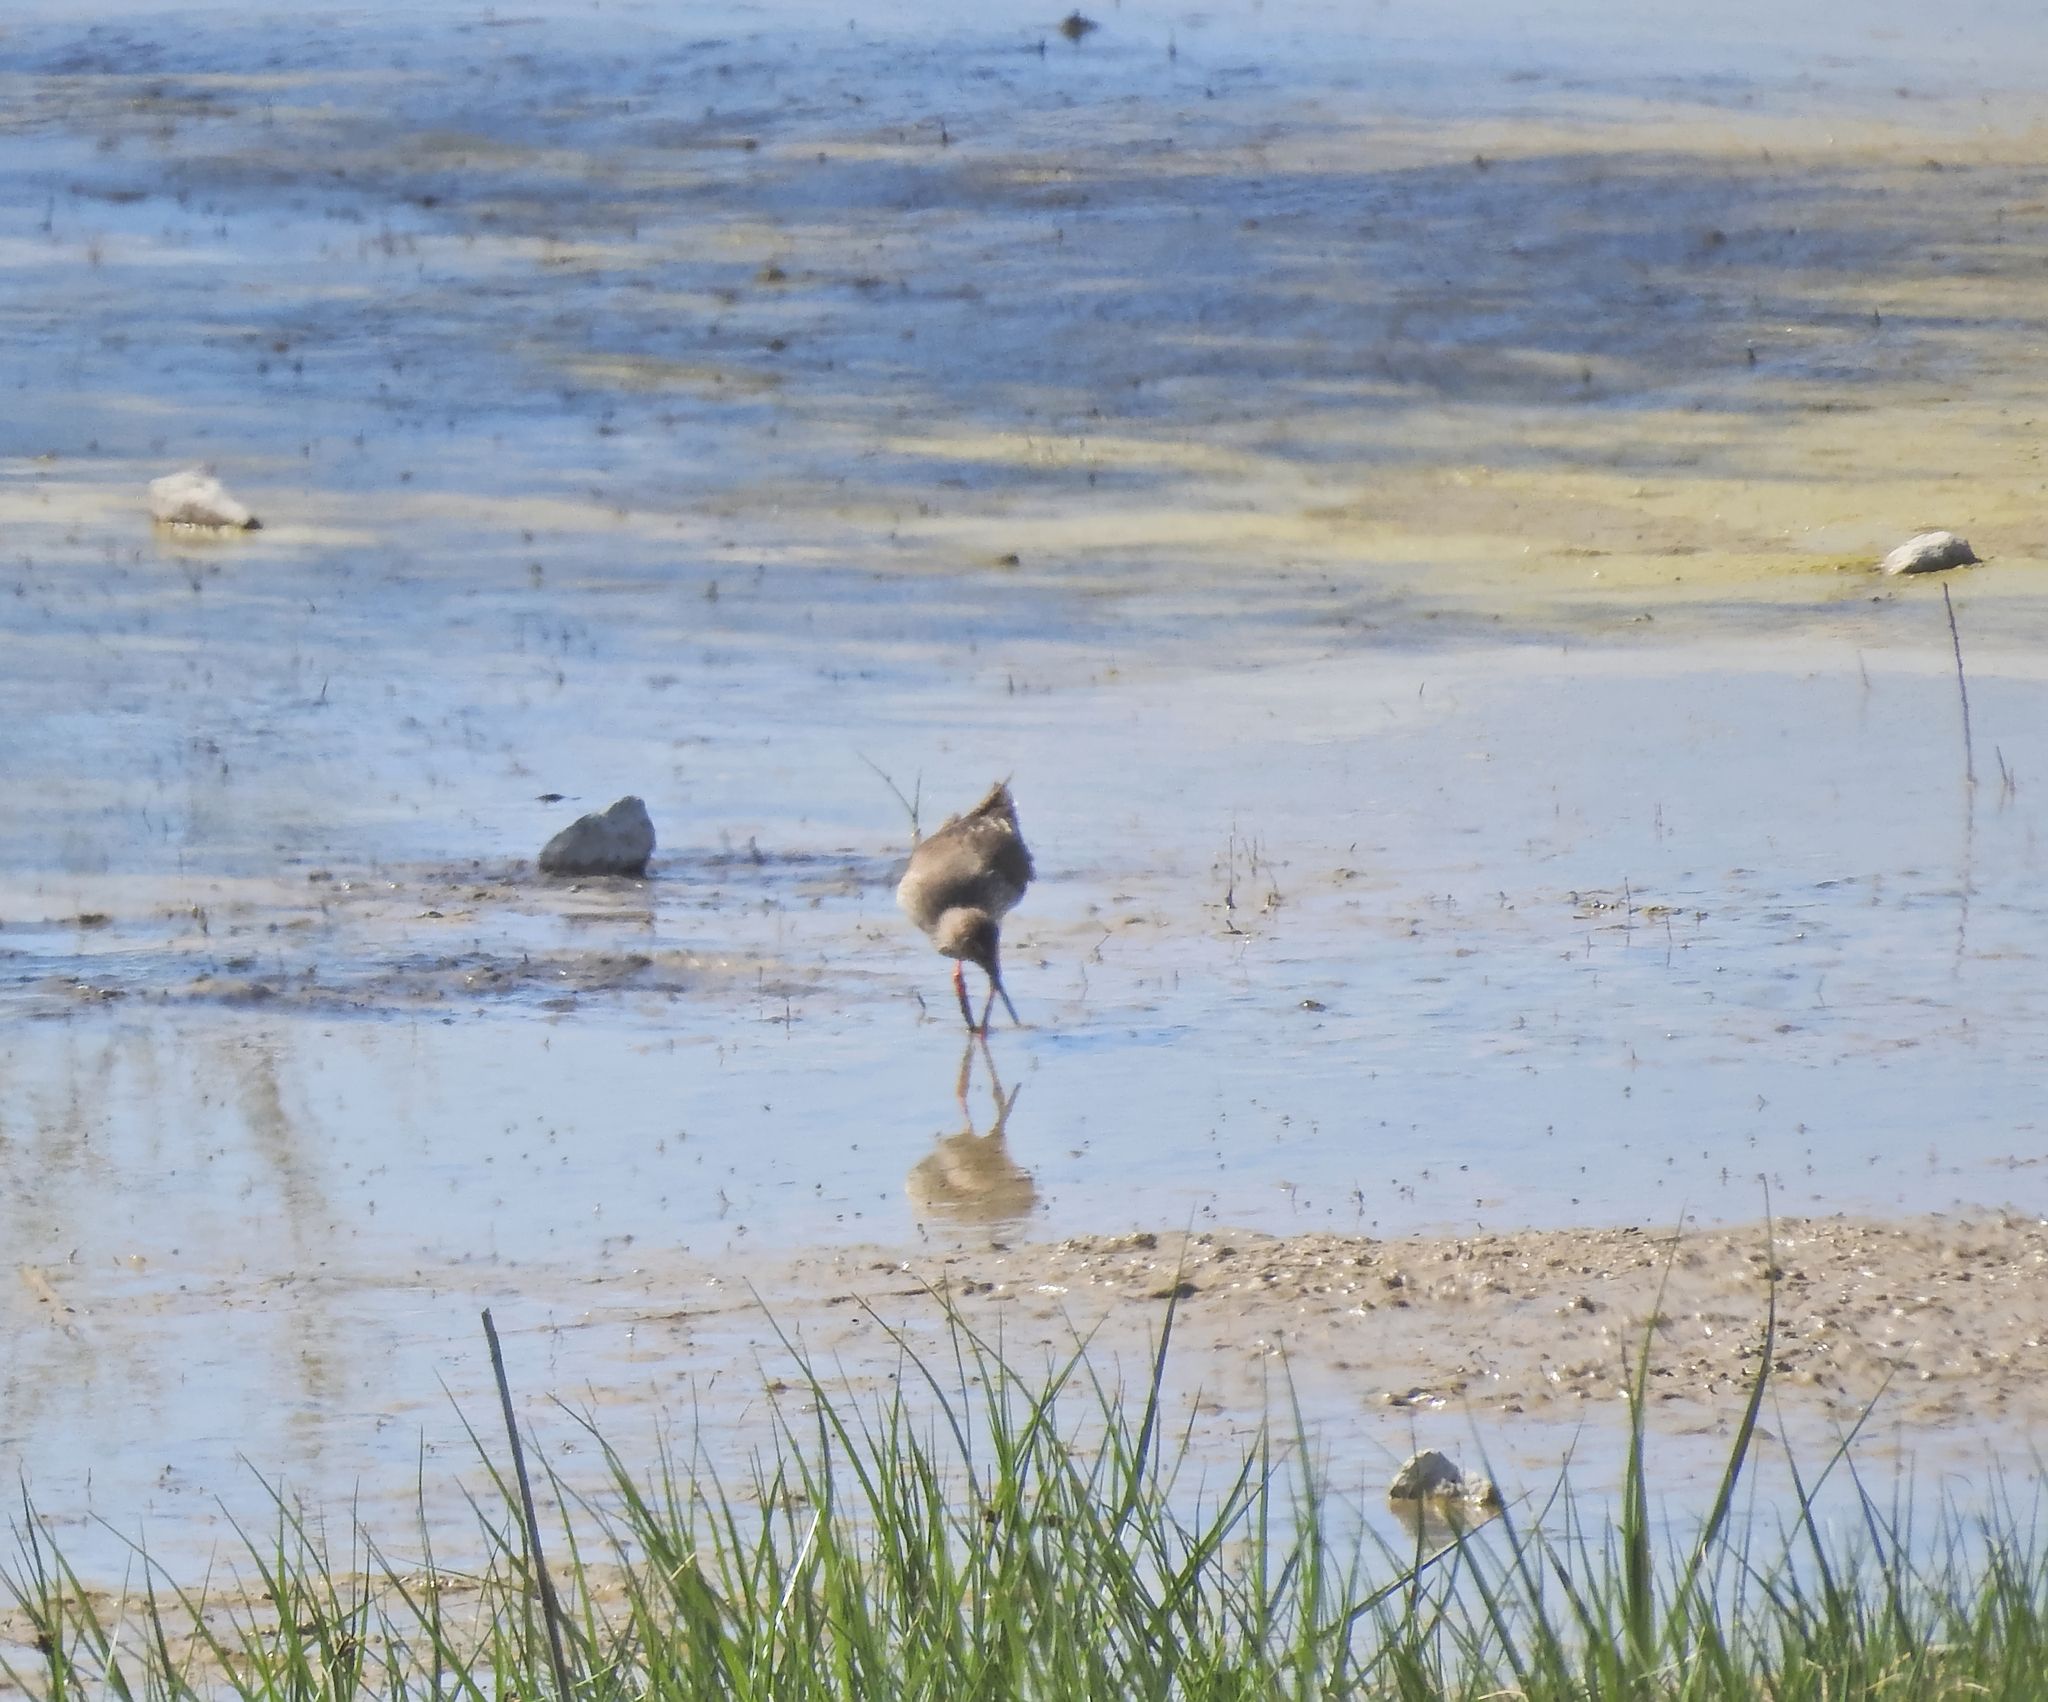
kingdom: Animalia
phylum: Chordata
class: Aves
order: Charadriiformes
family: Scolopacidae
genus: Tringa
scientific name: Tringa totanus
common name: Common redshank
